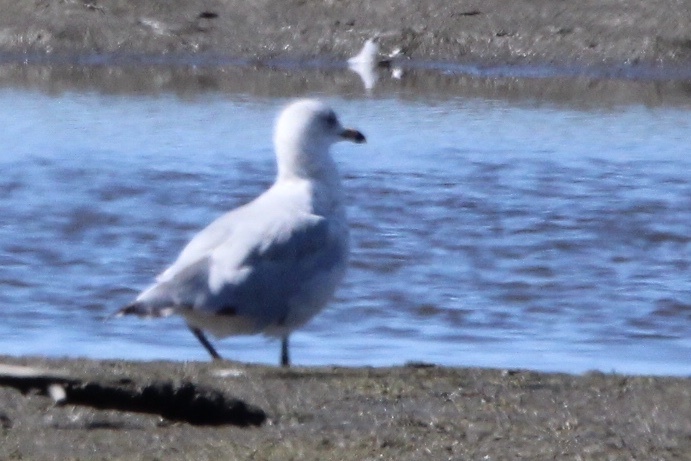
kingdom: Animalia
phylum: Chordata
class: Aves
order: Charadriiformes
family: Laridae
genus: Larus
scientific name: Larus delawarensis
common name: Ring-billed gull
